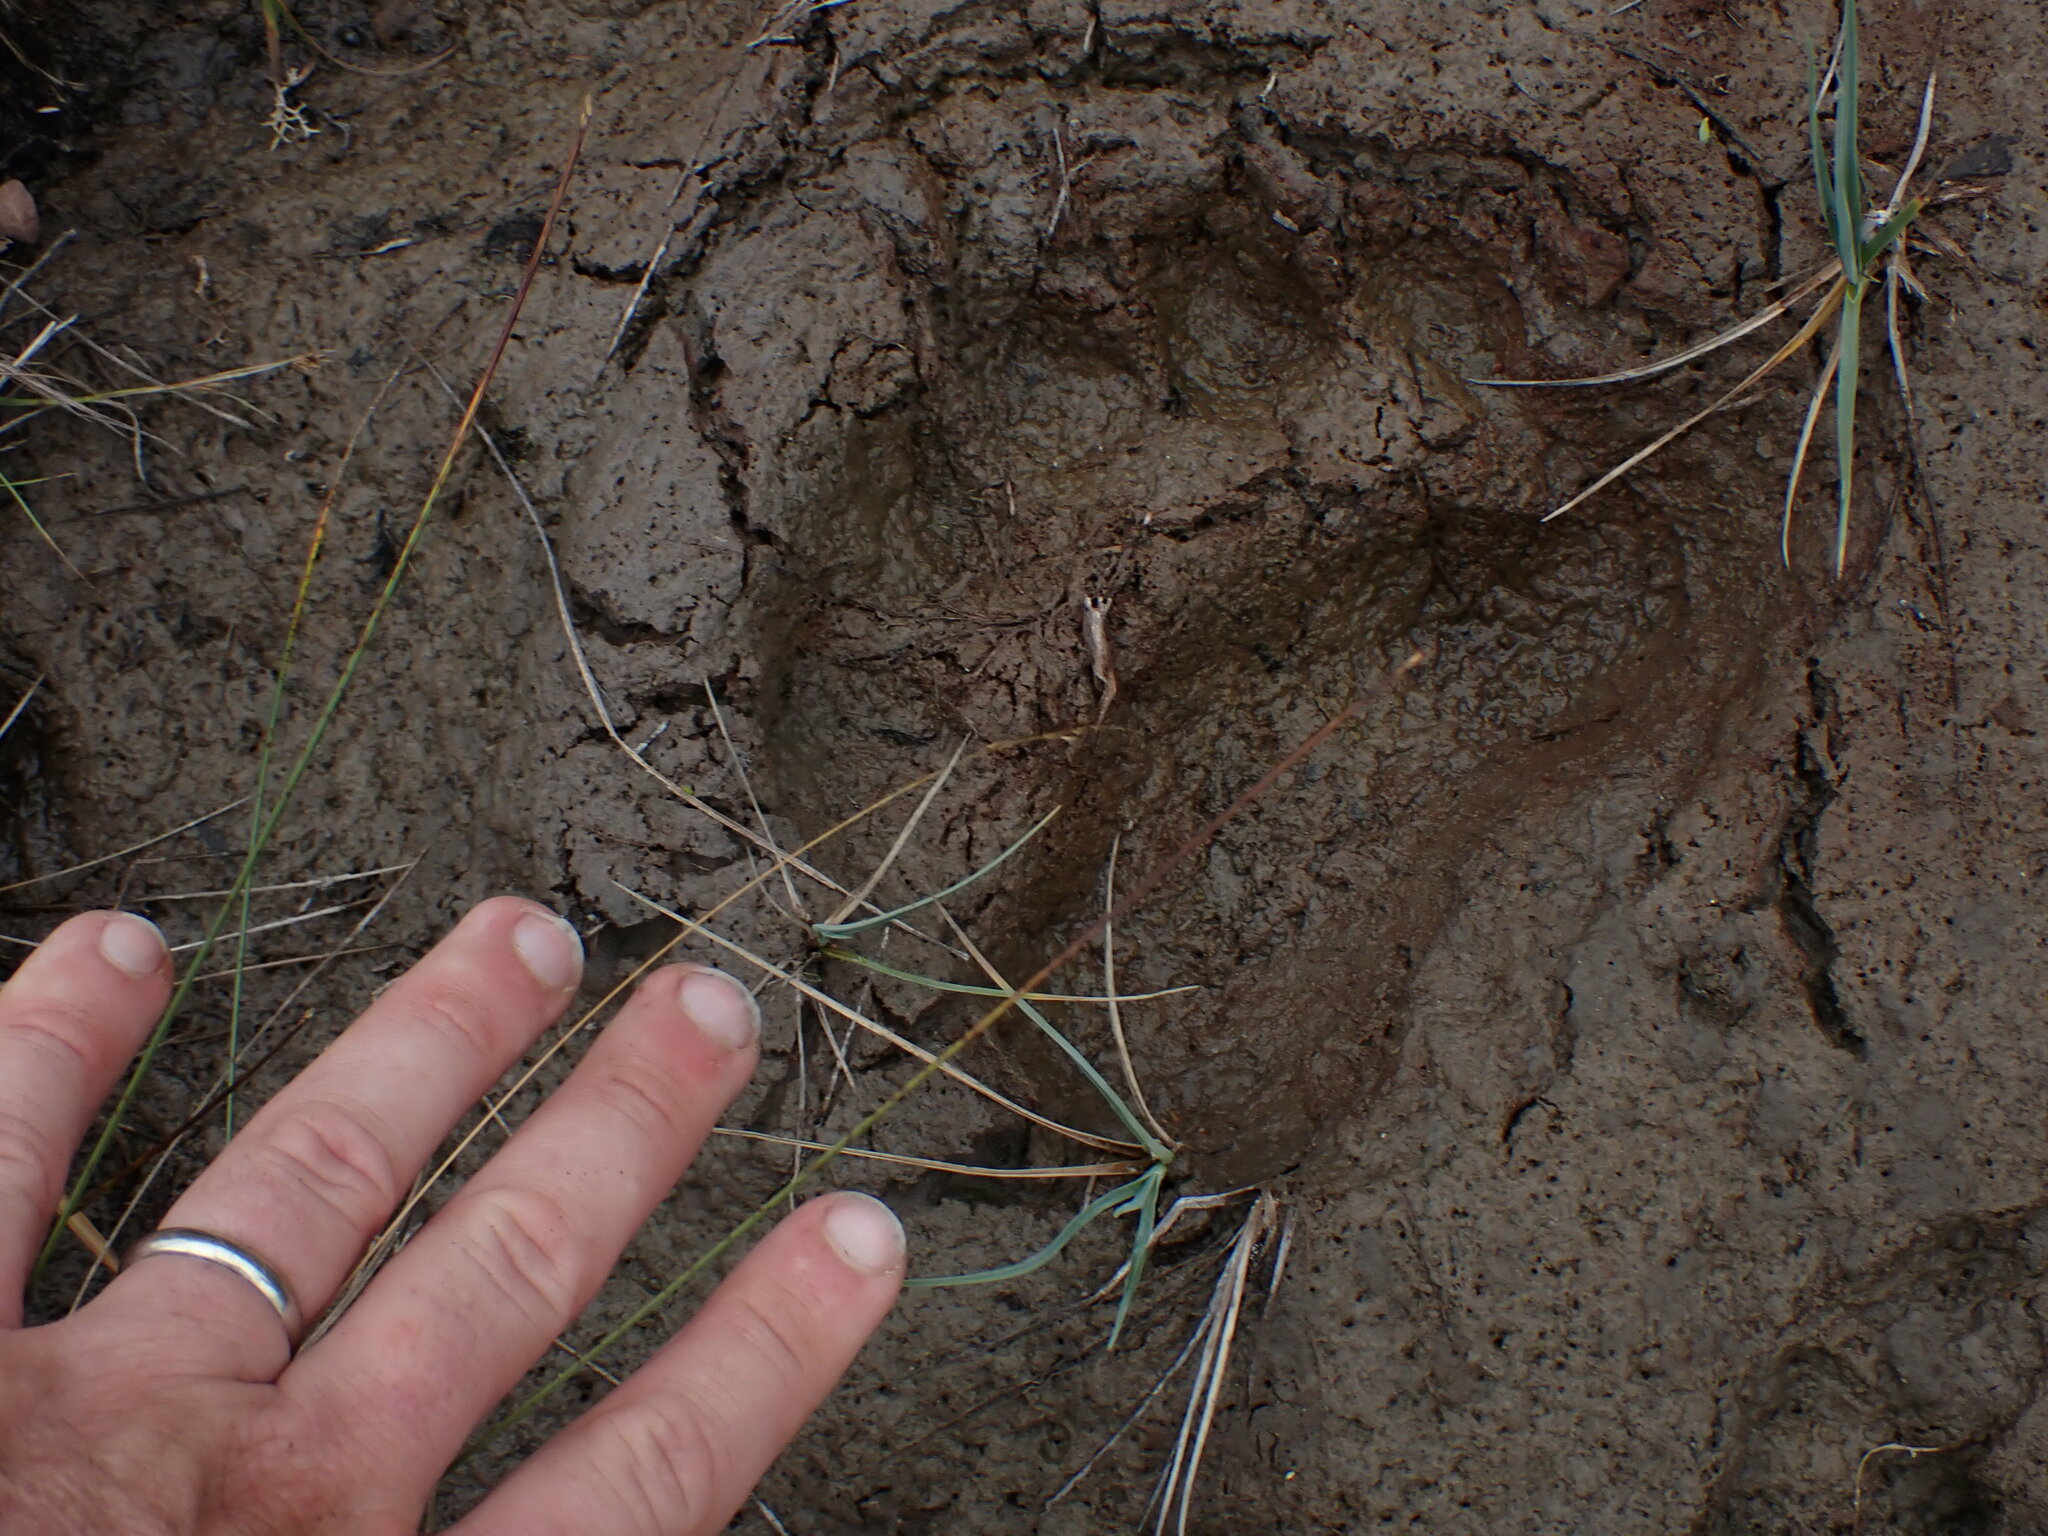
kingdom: Animalia
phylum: Chordata
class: Mammalia
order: Carnivora
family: Ursidae
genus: Ursus
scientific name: Ursus americanus
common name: American black bear
